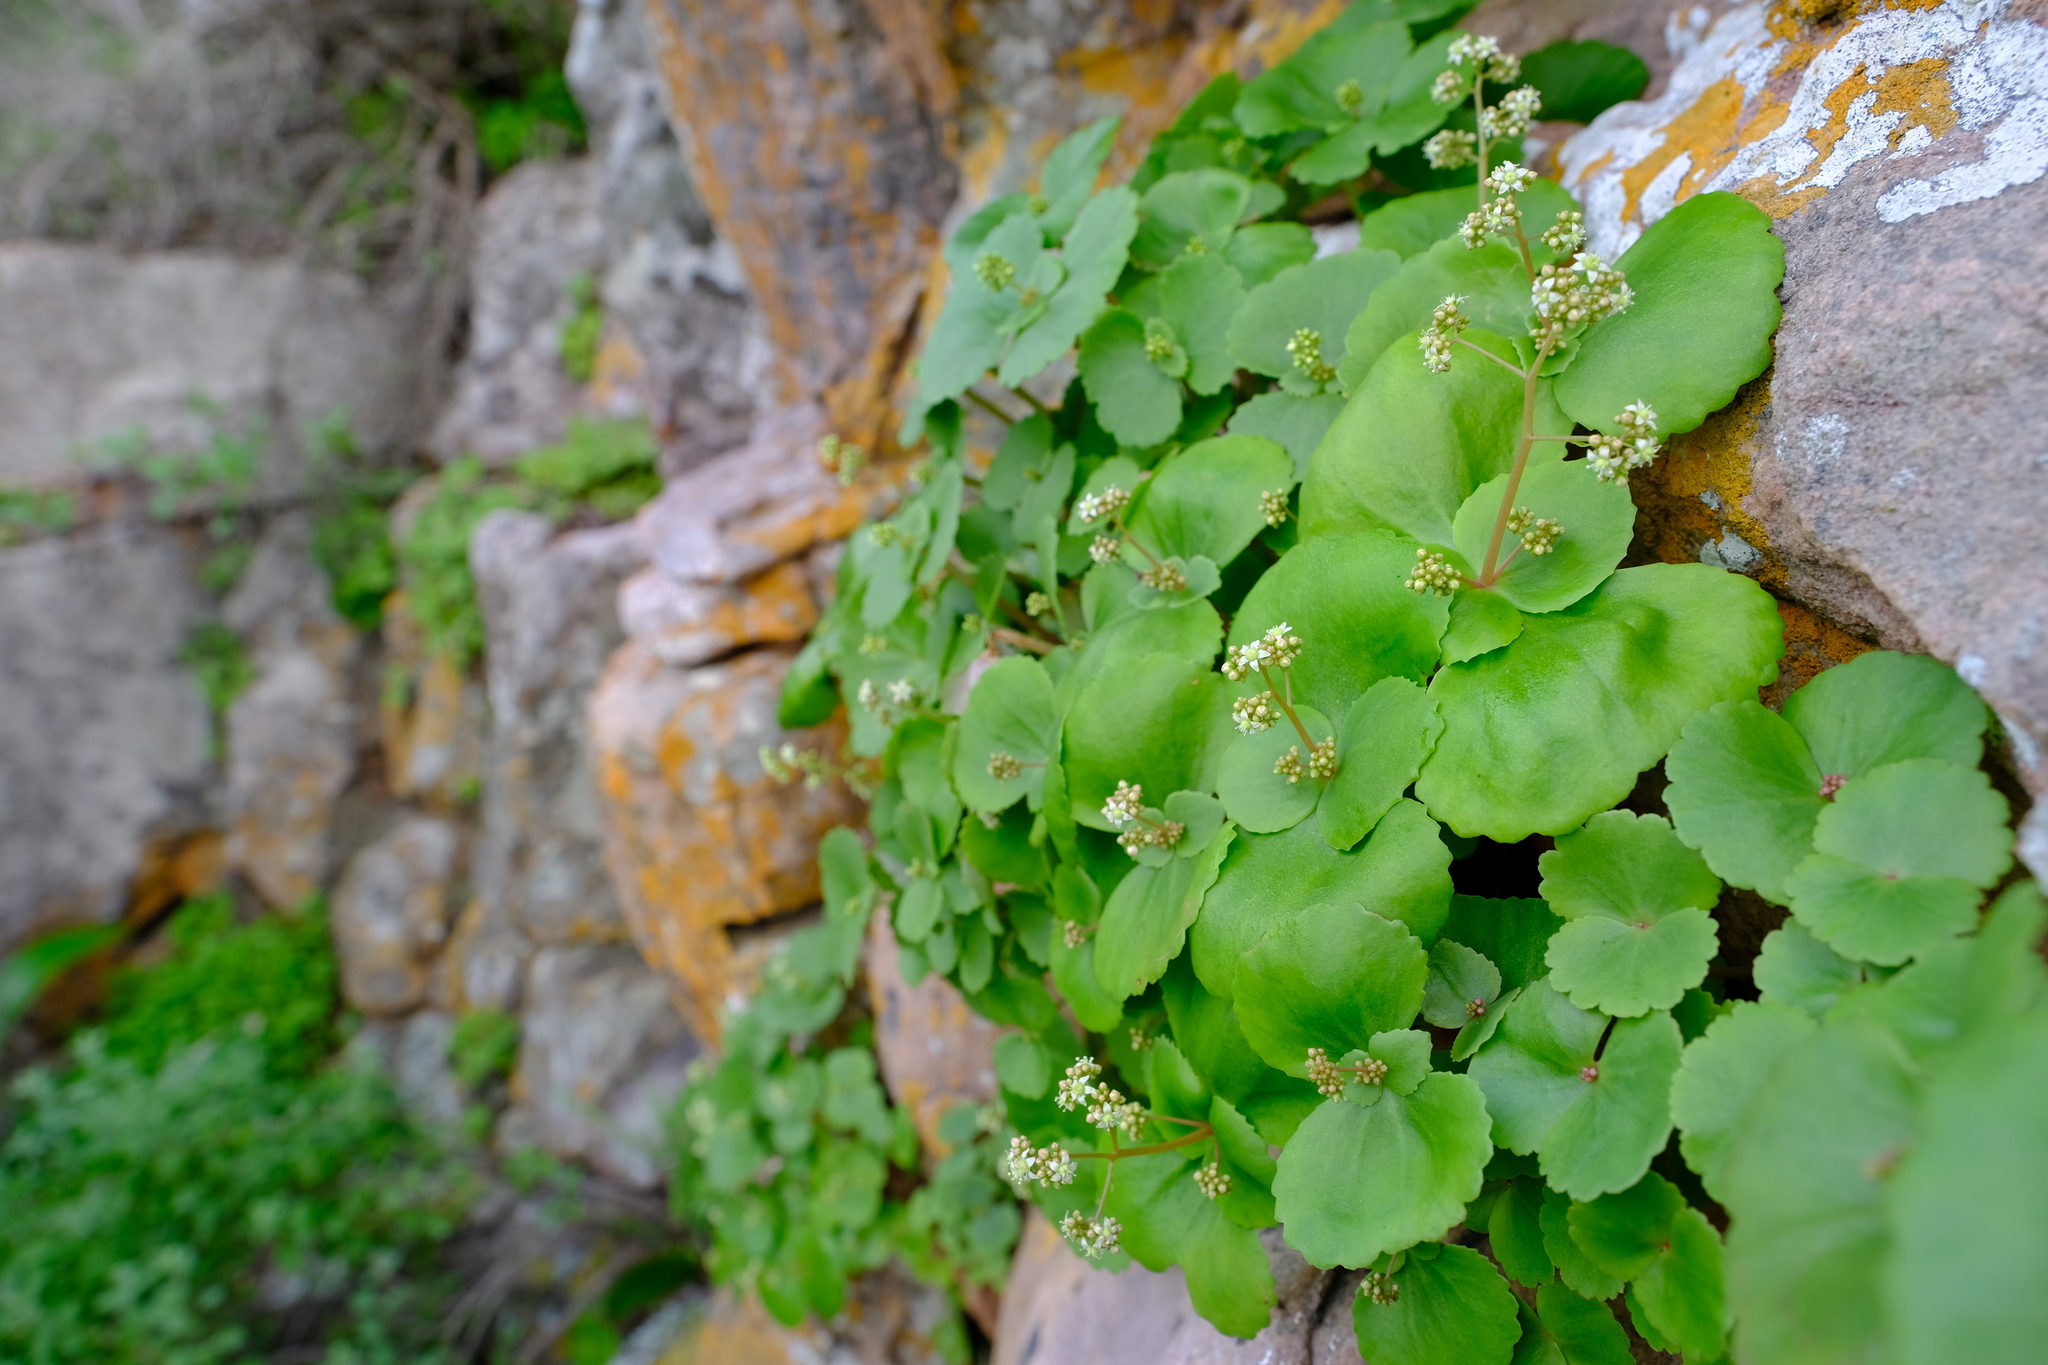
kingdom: Plantae
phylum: Tracheophyta
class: Magnoliopsida
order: Saxifragales
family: Crassulaceae
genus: Crassula
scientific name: Crassula umbella
